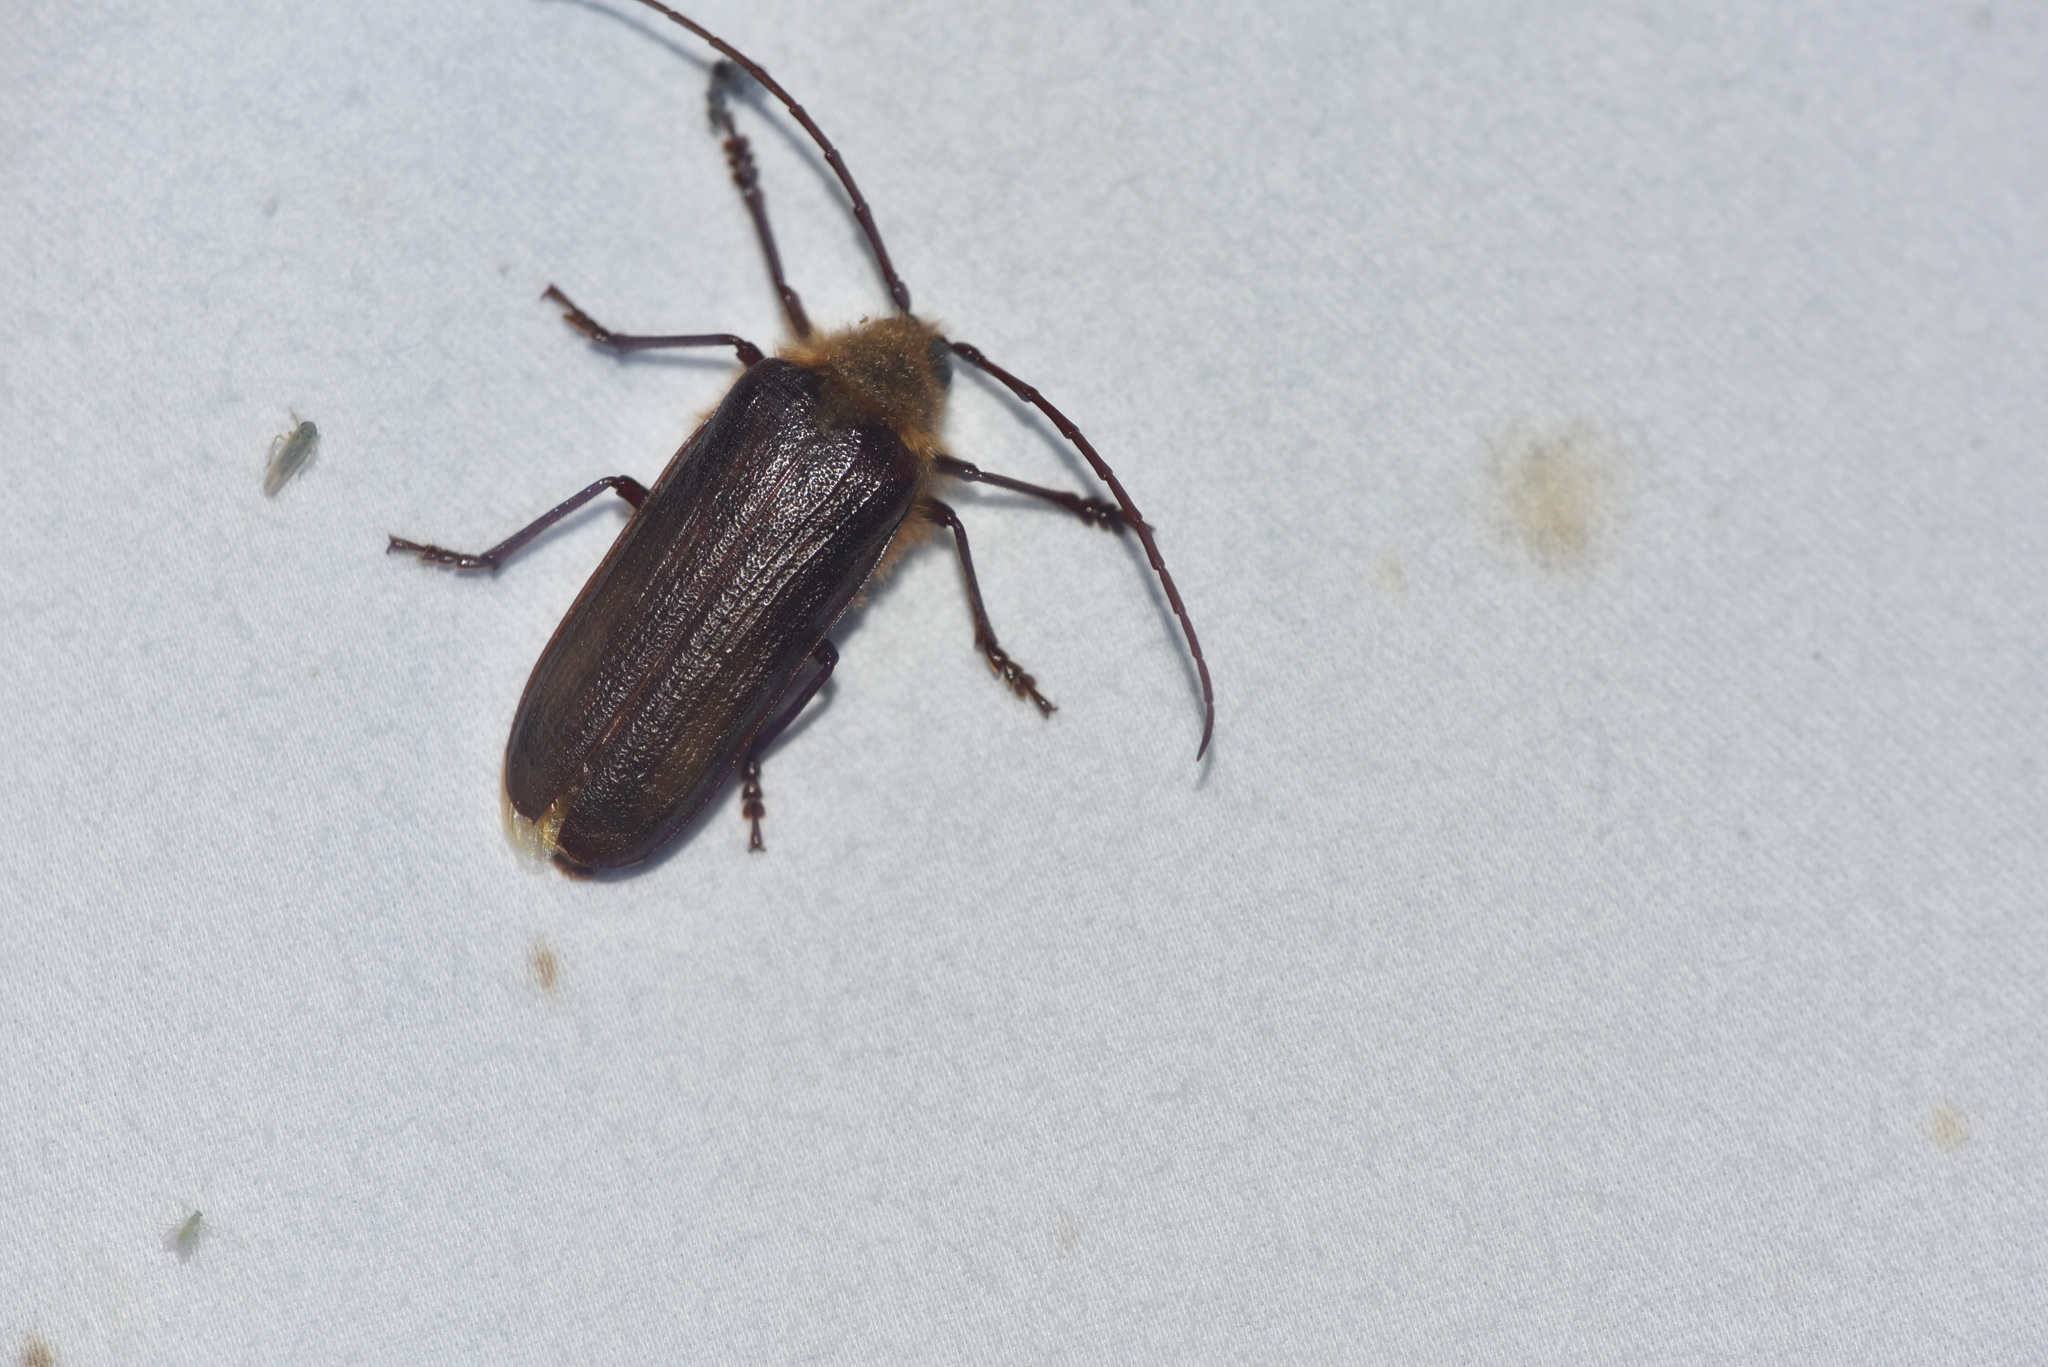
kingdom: Animalia
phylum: Arthropoda
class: Insecta
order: Coleoptera
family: Cerambycidae
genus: Tragosoma
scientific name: Tragosoma harrisii
